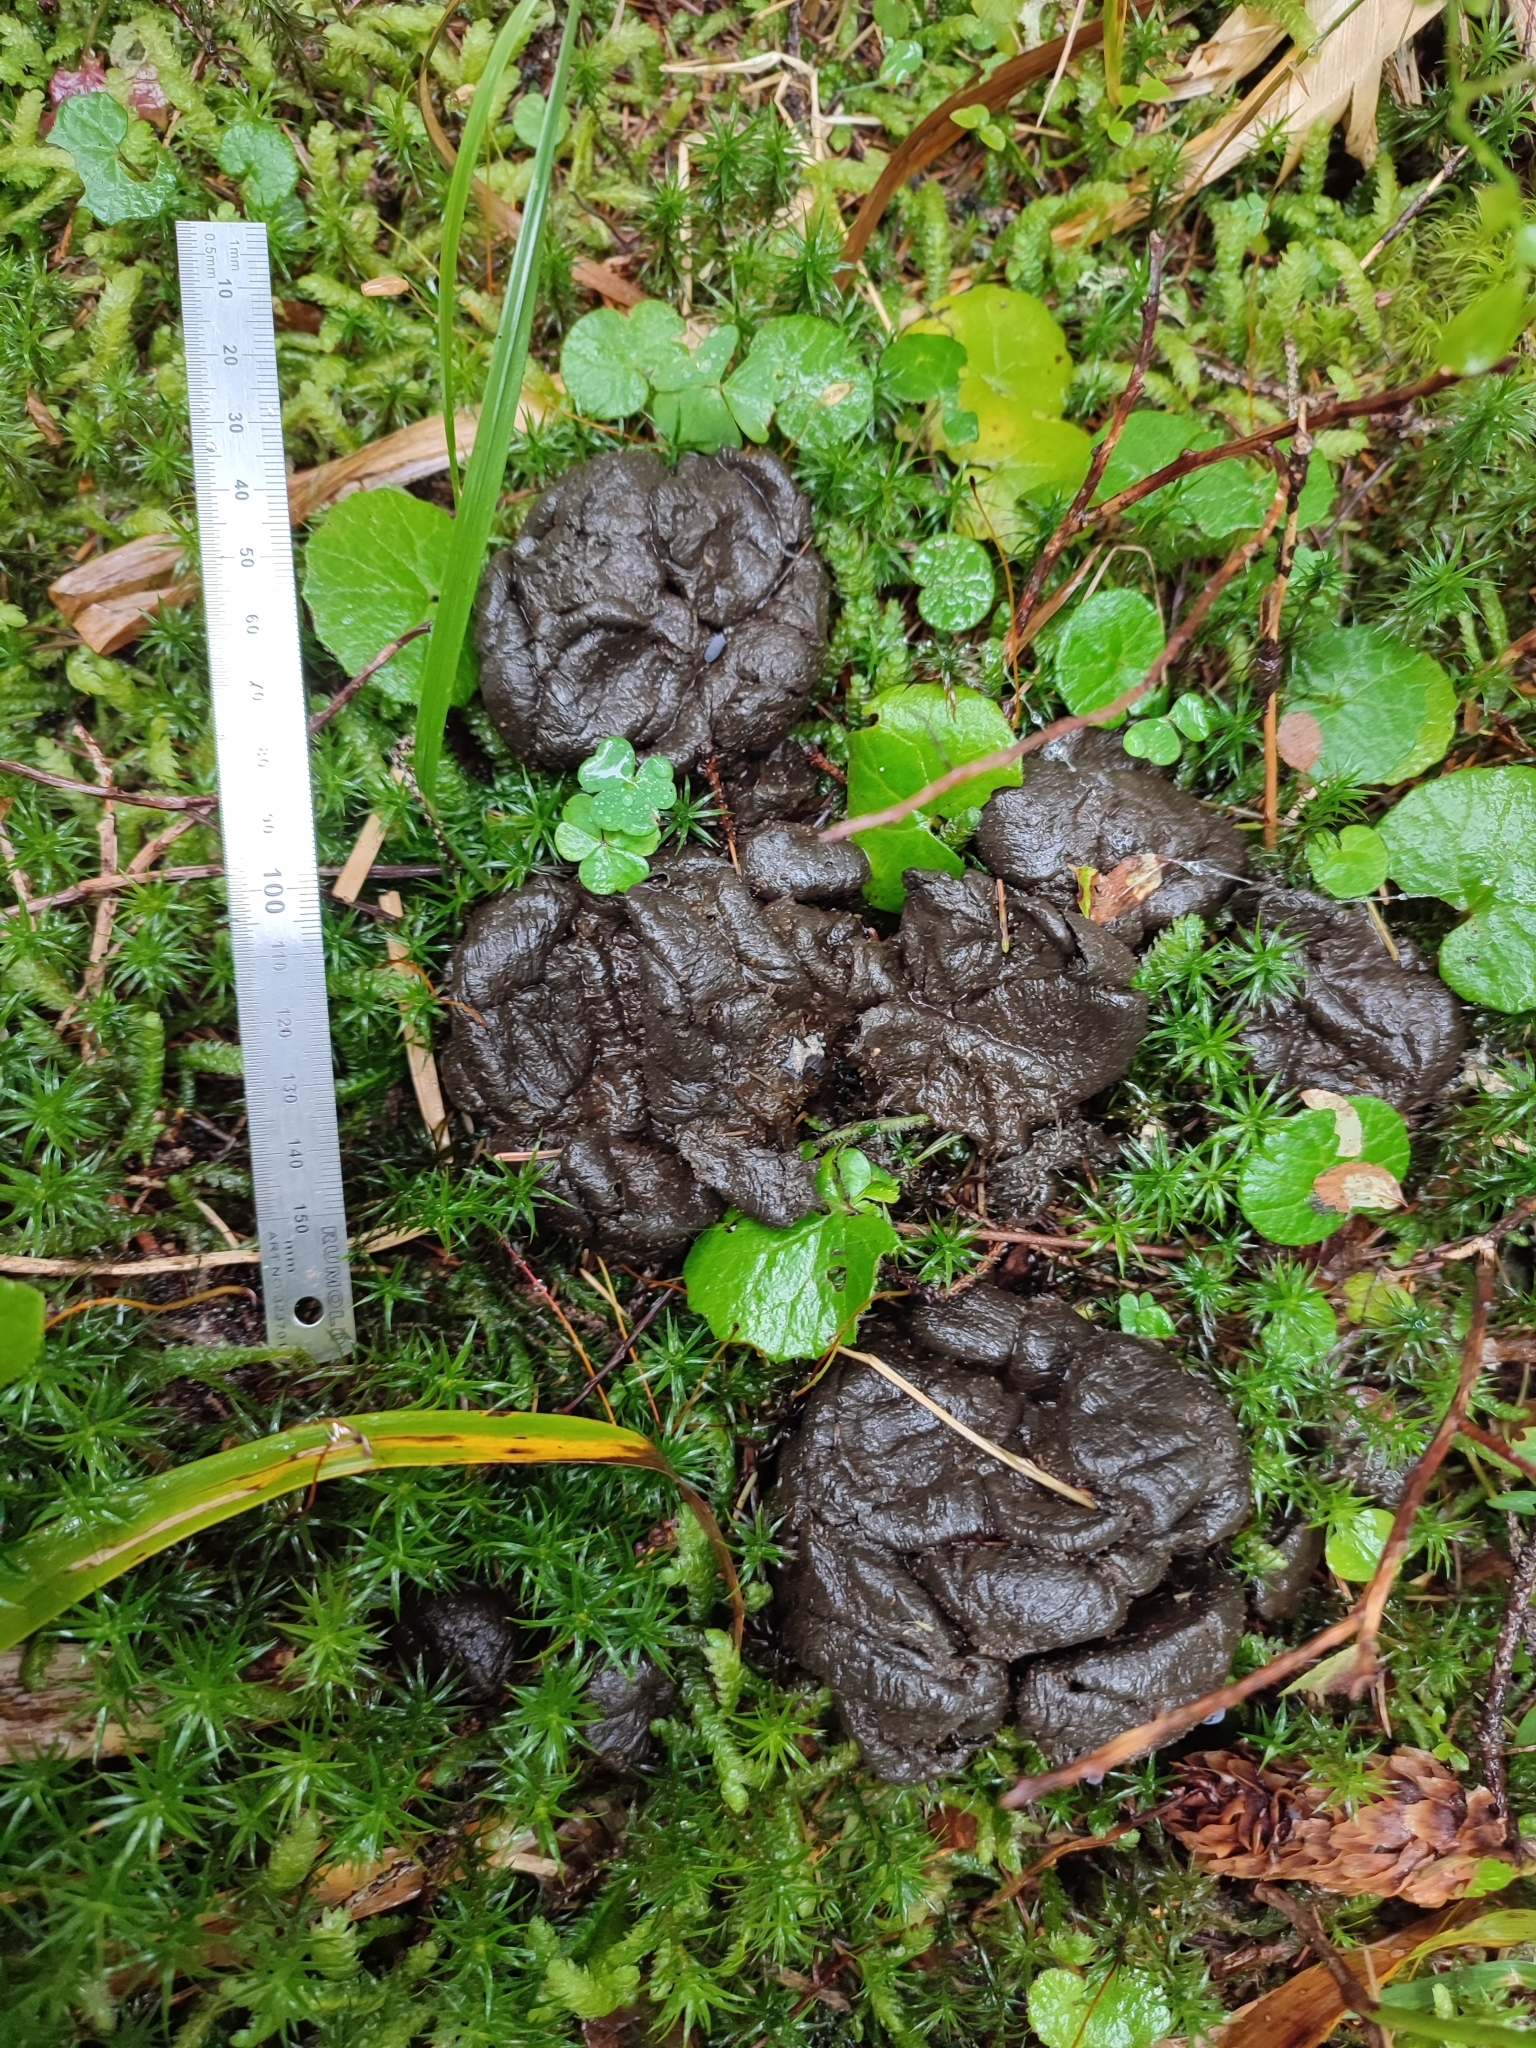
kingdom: Animalia
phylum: Chordata
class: Mammalia
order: Carnivora
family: Ursidae
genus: Ursus
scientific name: Ursus arctos
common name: Brown bear
